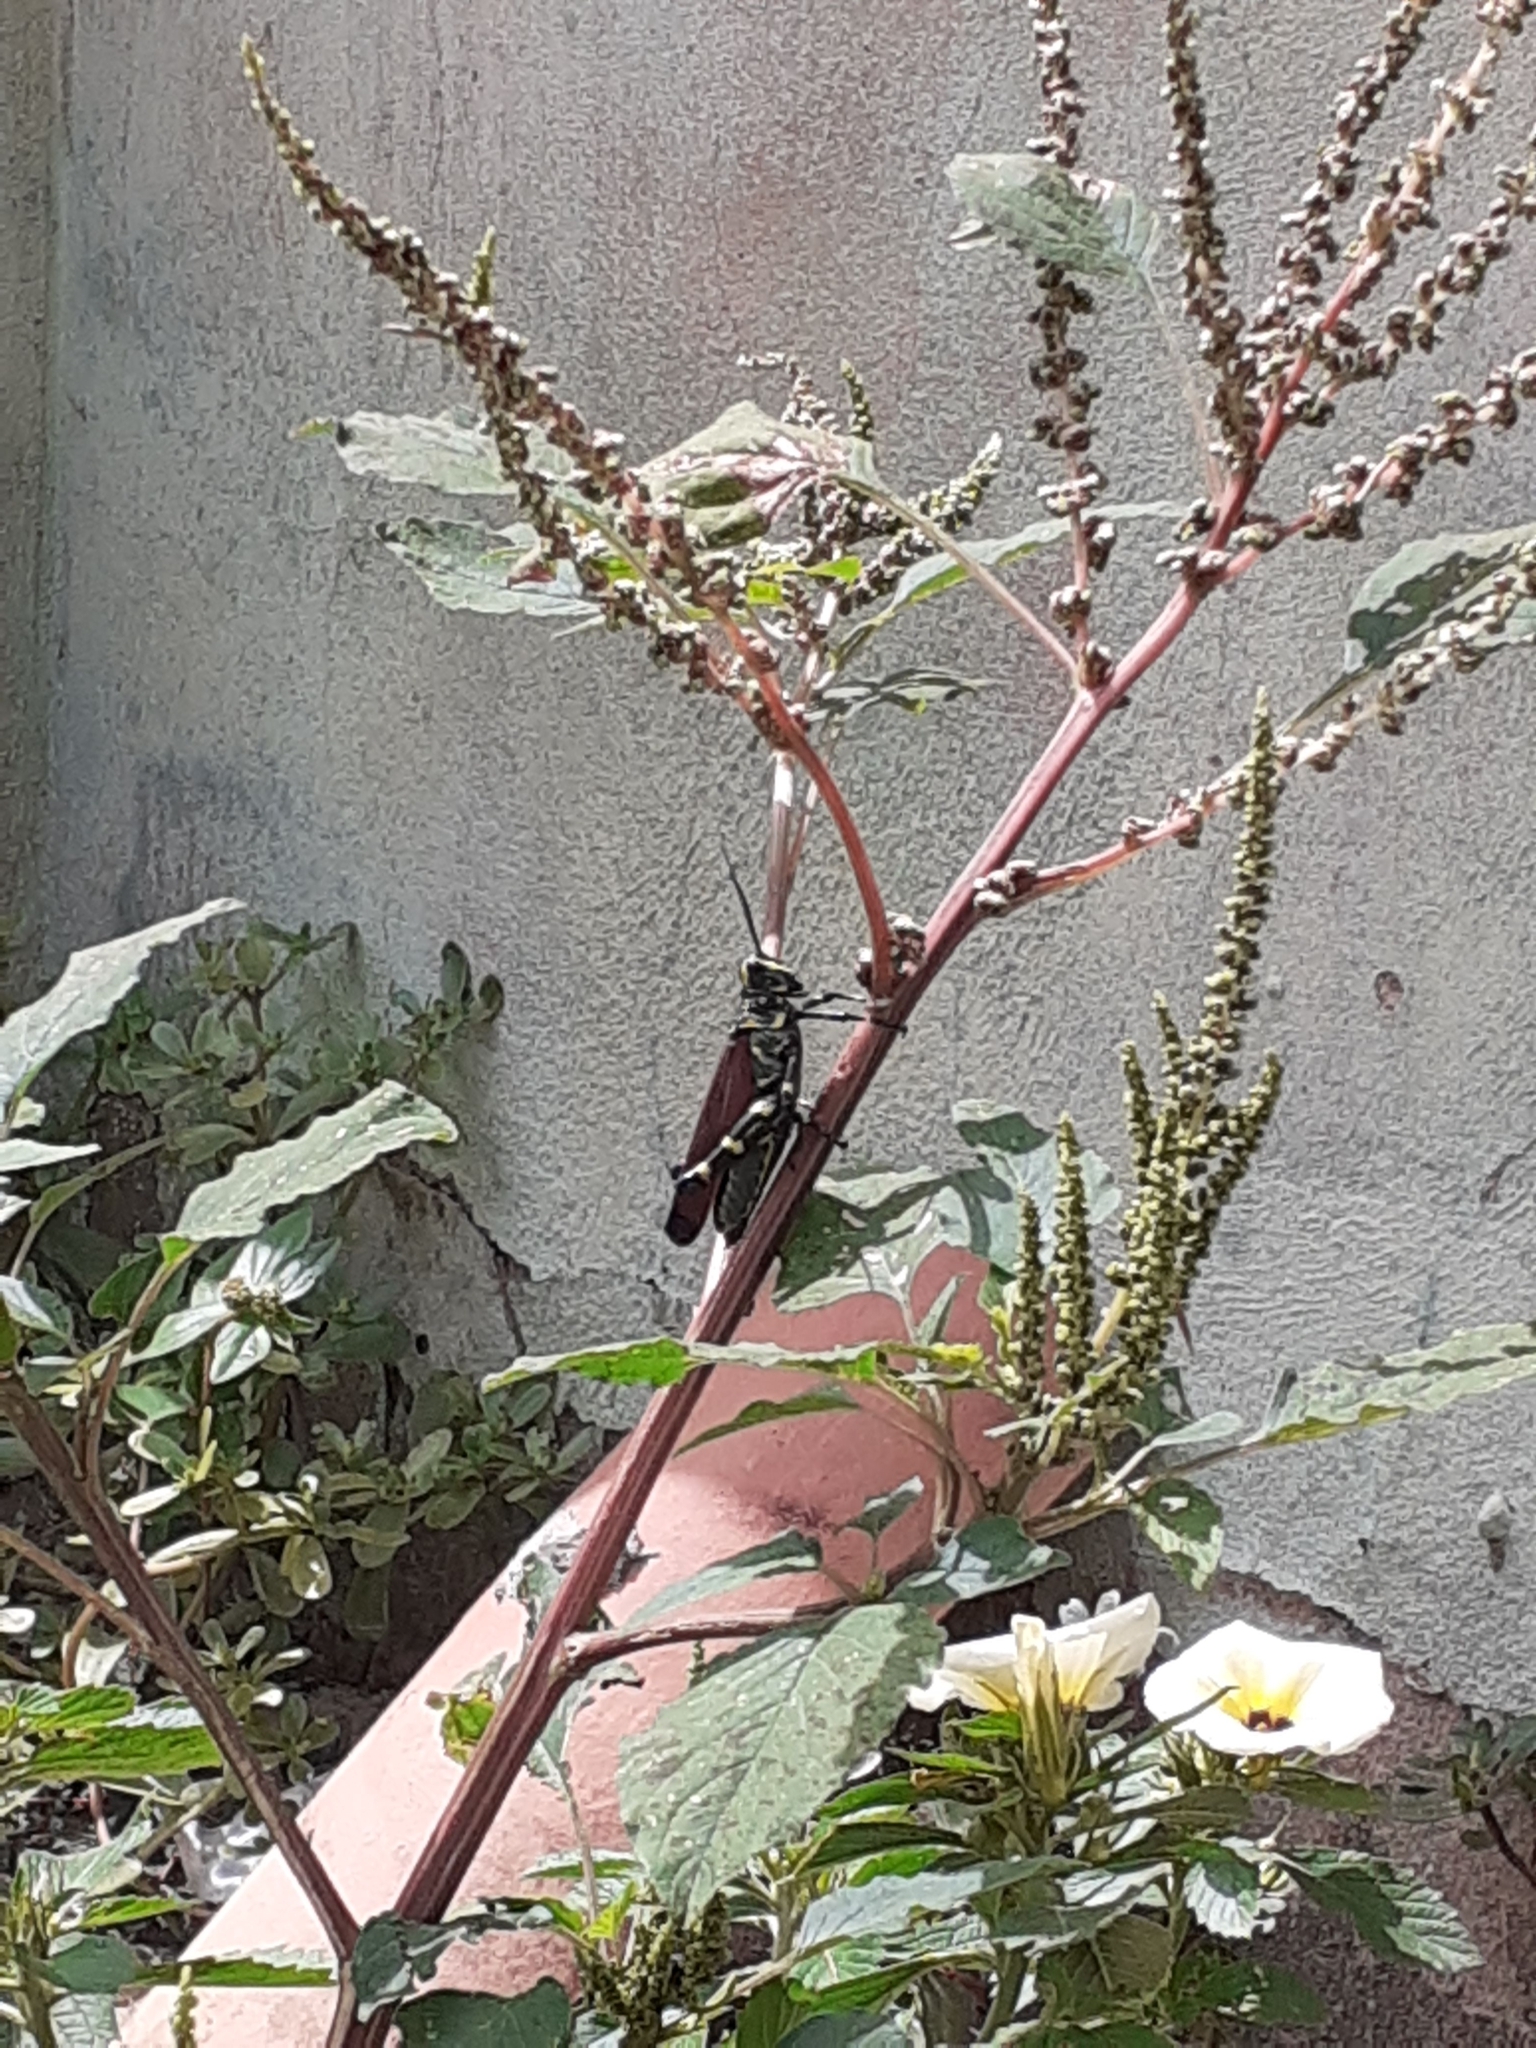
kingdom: Animalia
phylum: Arthropoda
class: Insecta
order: Orthoptera
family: Romaleidae
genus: Chromacris
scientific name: Chromacris speciosa
